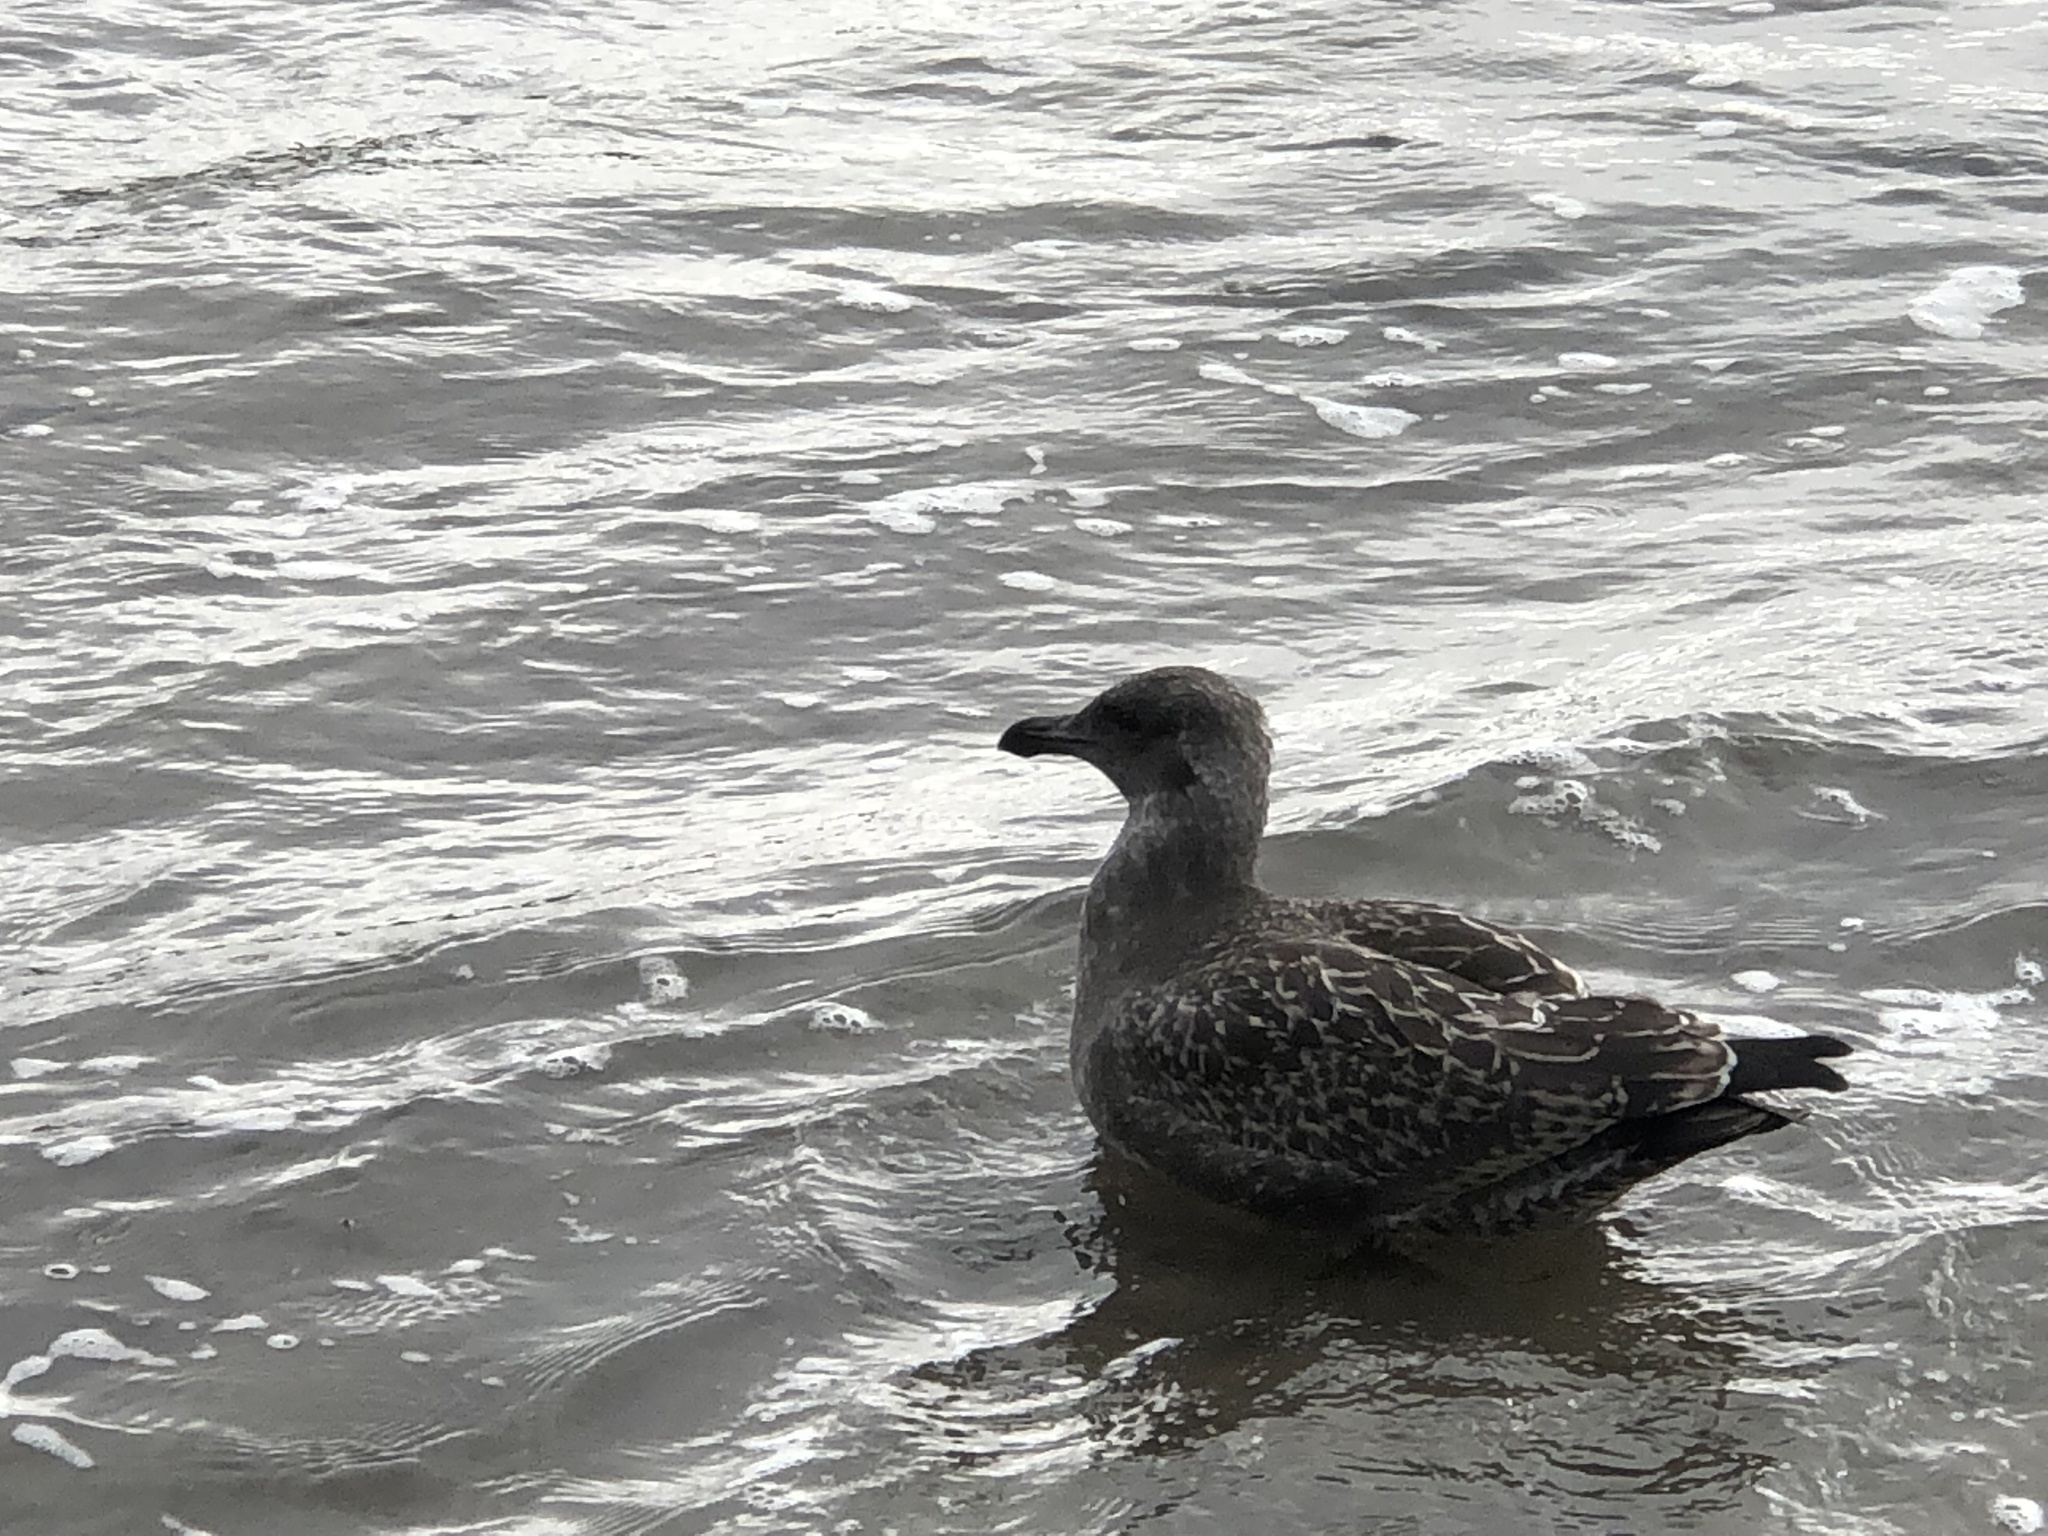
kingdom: Animalia
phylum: Chordata
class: Aves
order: Charadriiformes
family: Laridae
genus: Larus
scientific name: Larus occidentalis
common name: Western gull
